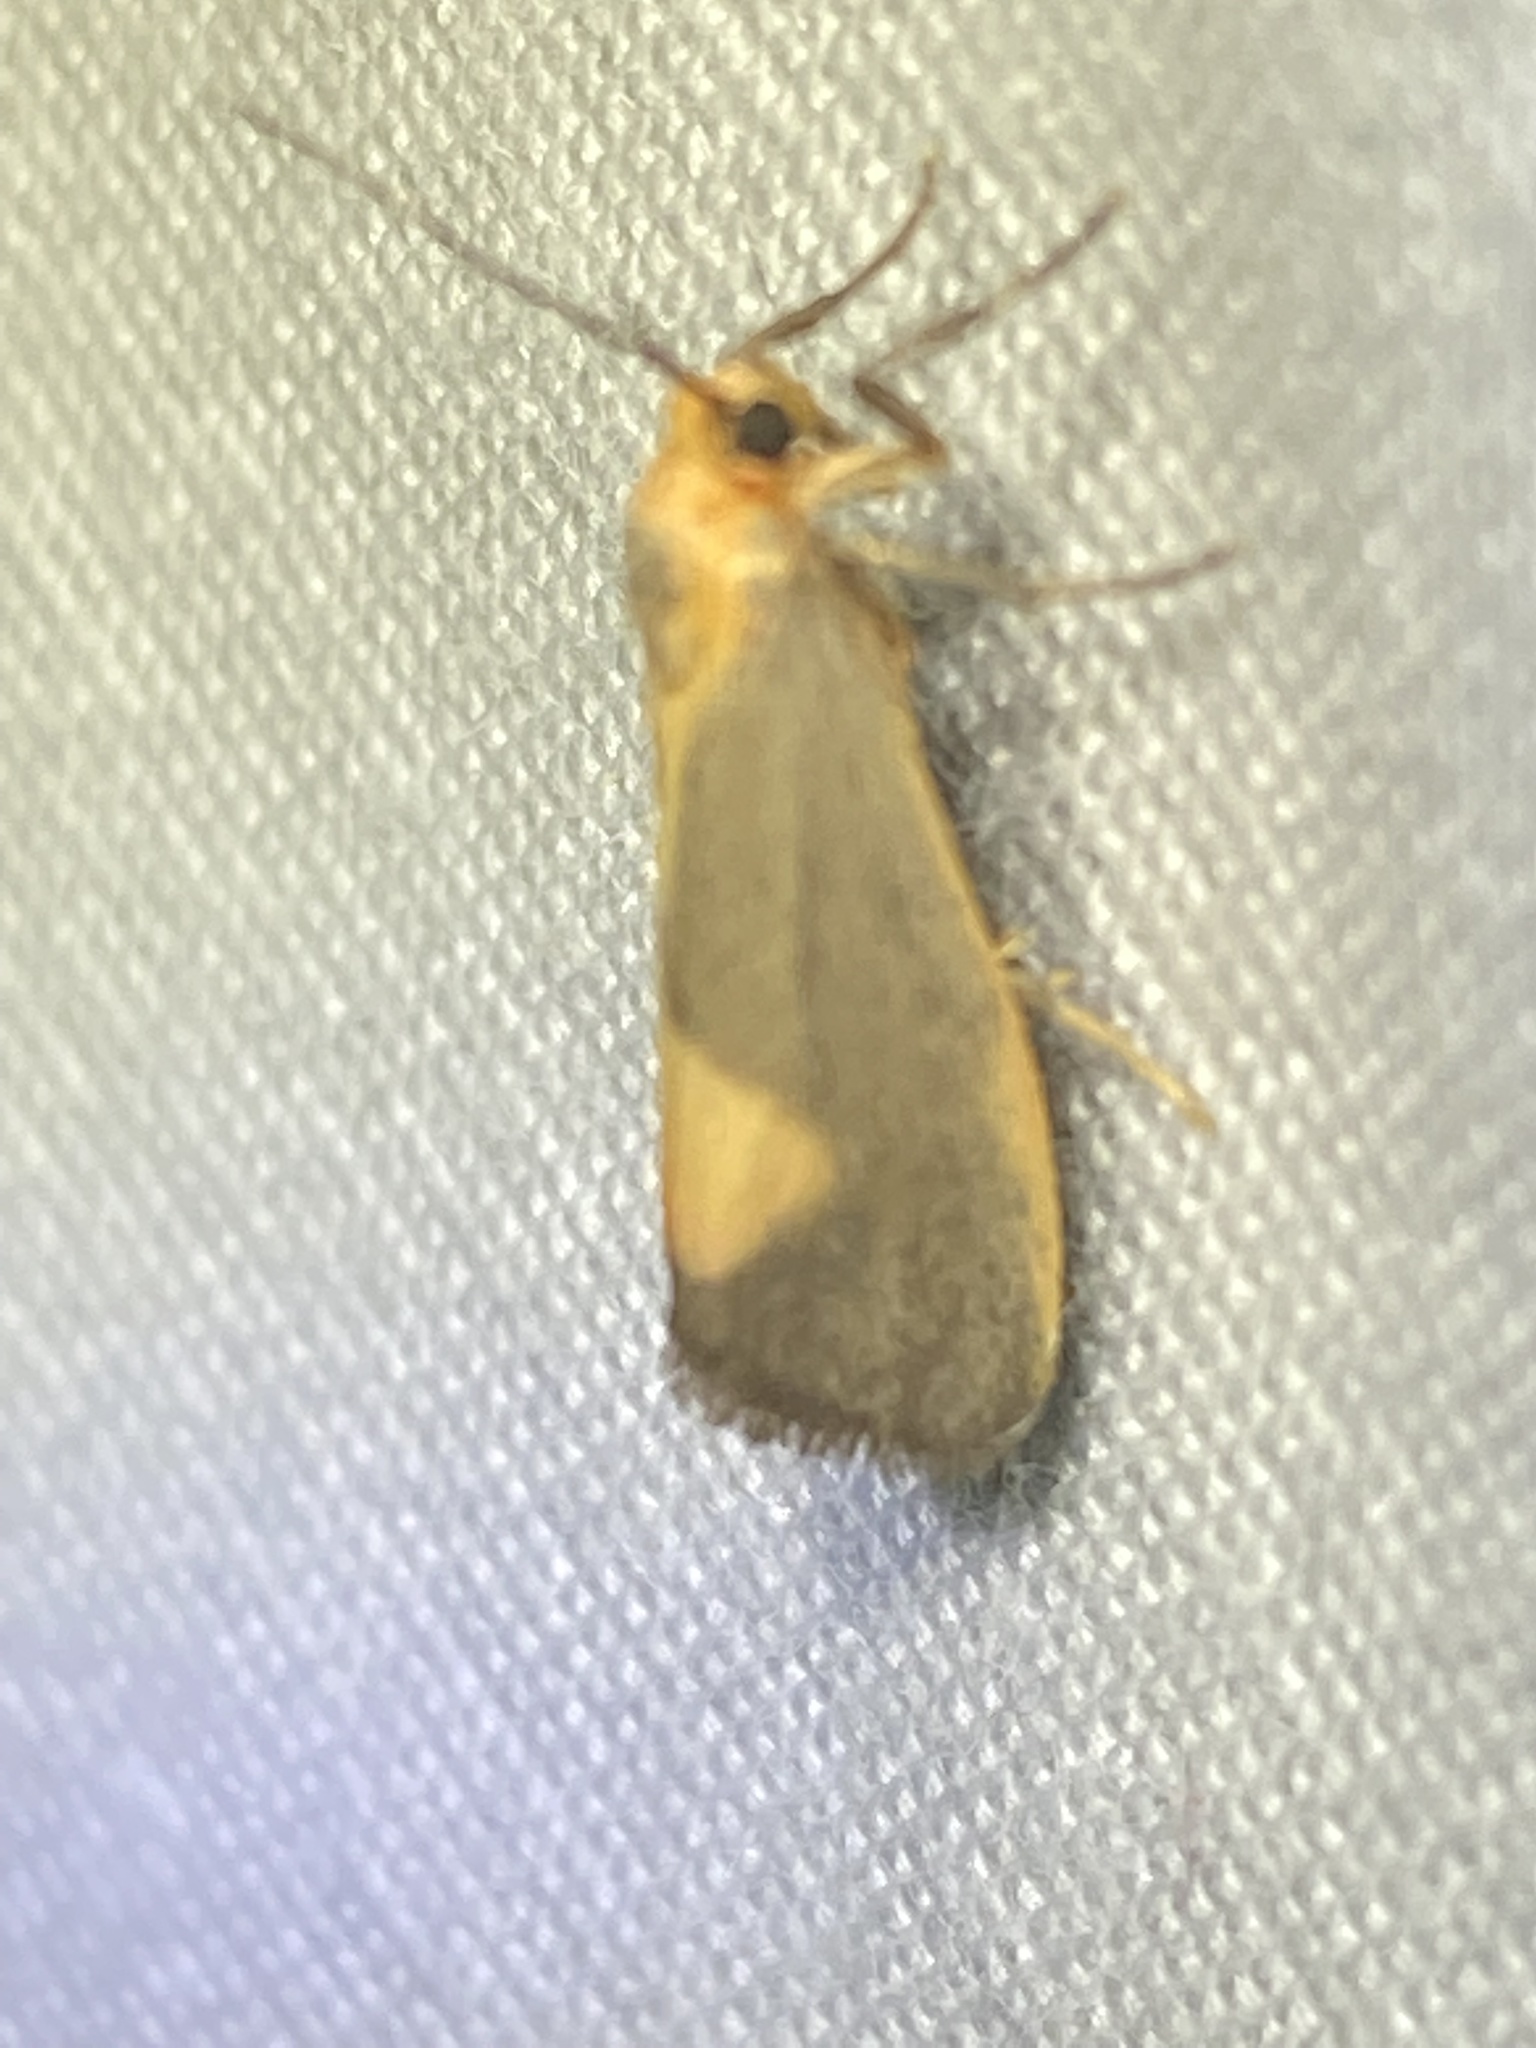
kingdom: Animalia
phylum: Arthropoda
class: Insecta
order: Lepidoptera
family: Erebidae
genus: Cisthene
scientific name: Cisthene plumbea
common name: Lead colored lichen moth
